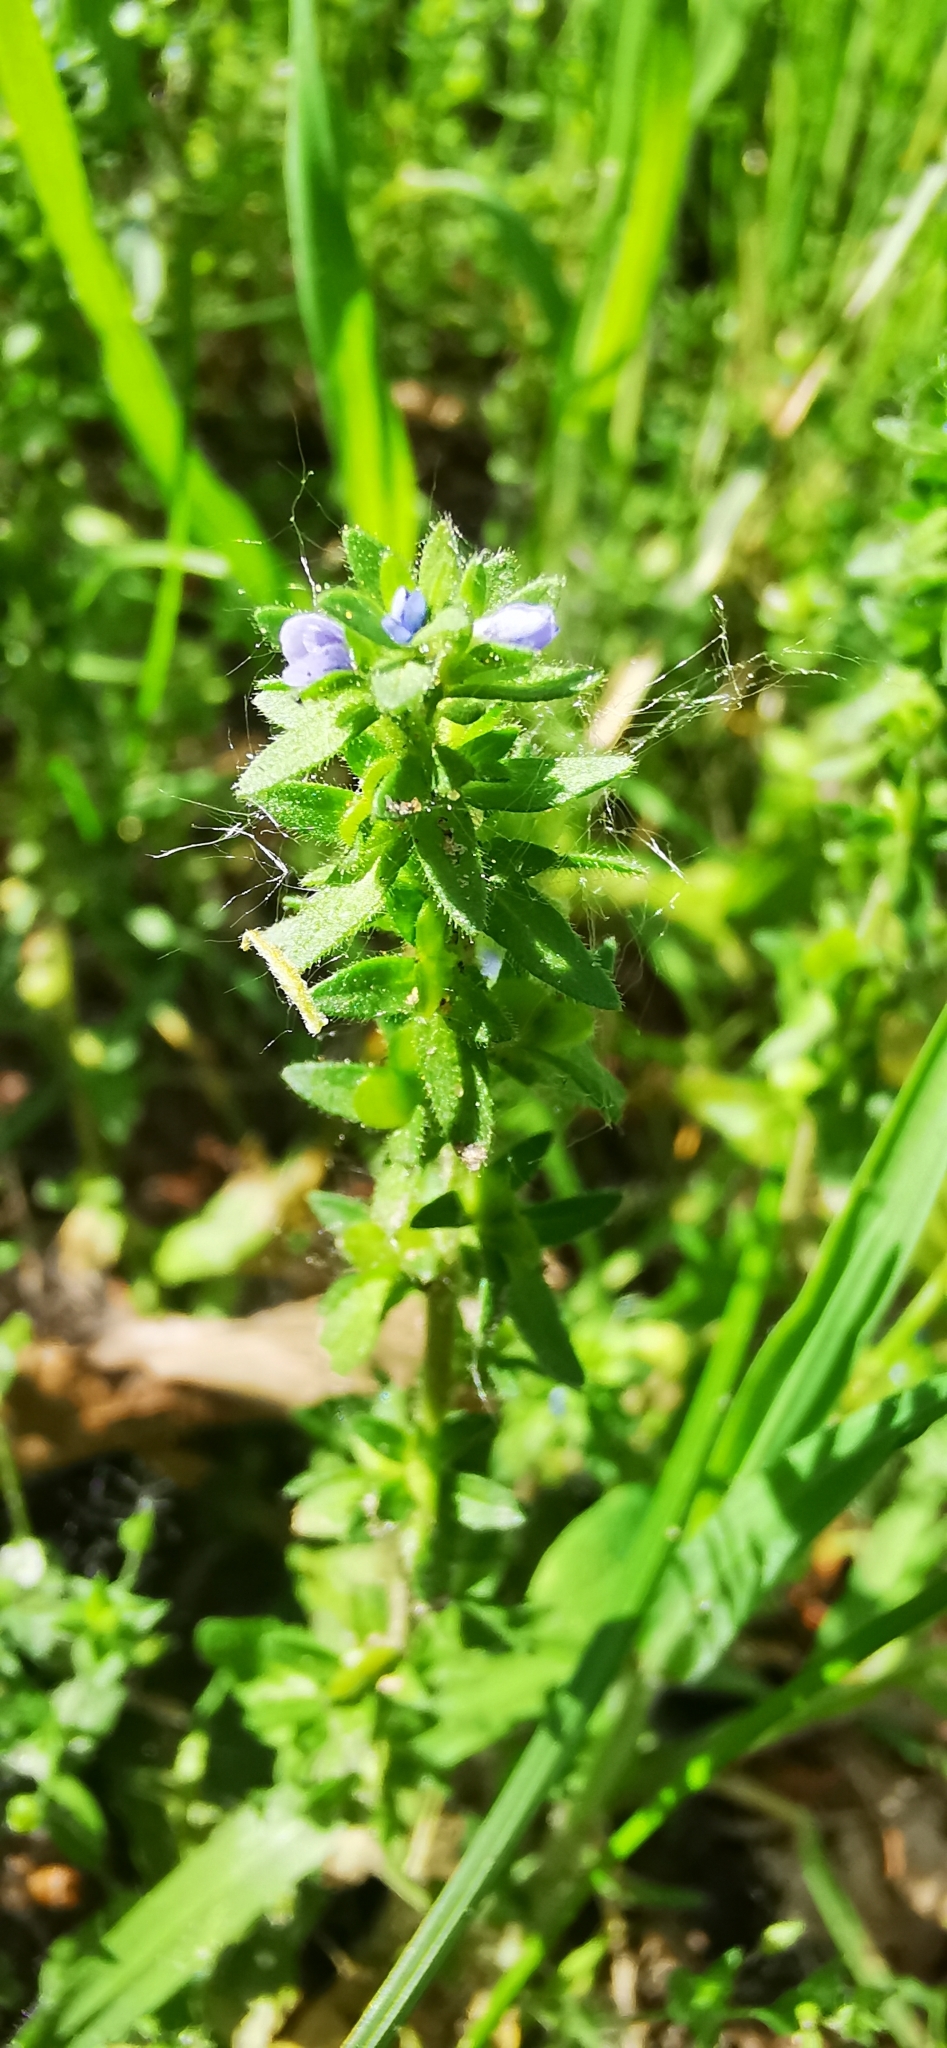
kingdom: Plantae
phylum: Tracheophyta
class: Magnoliopsida
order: Lamiales
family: Plantaginaceae
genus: Veronica
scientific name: Veronica arvensis
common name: Corn speedwell
